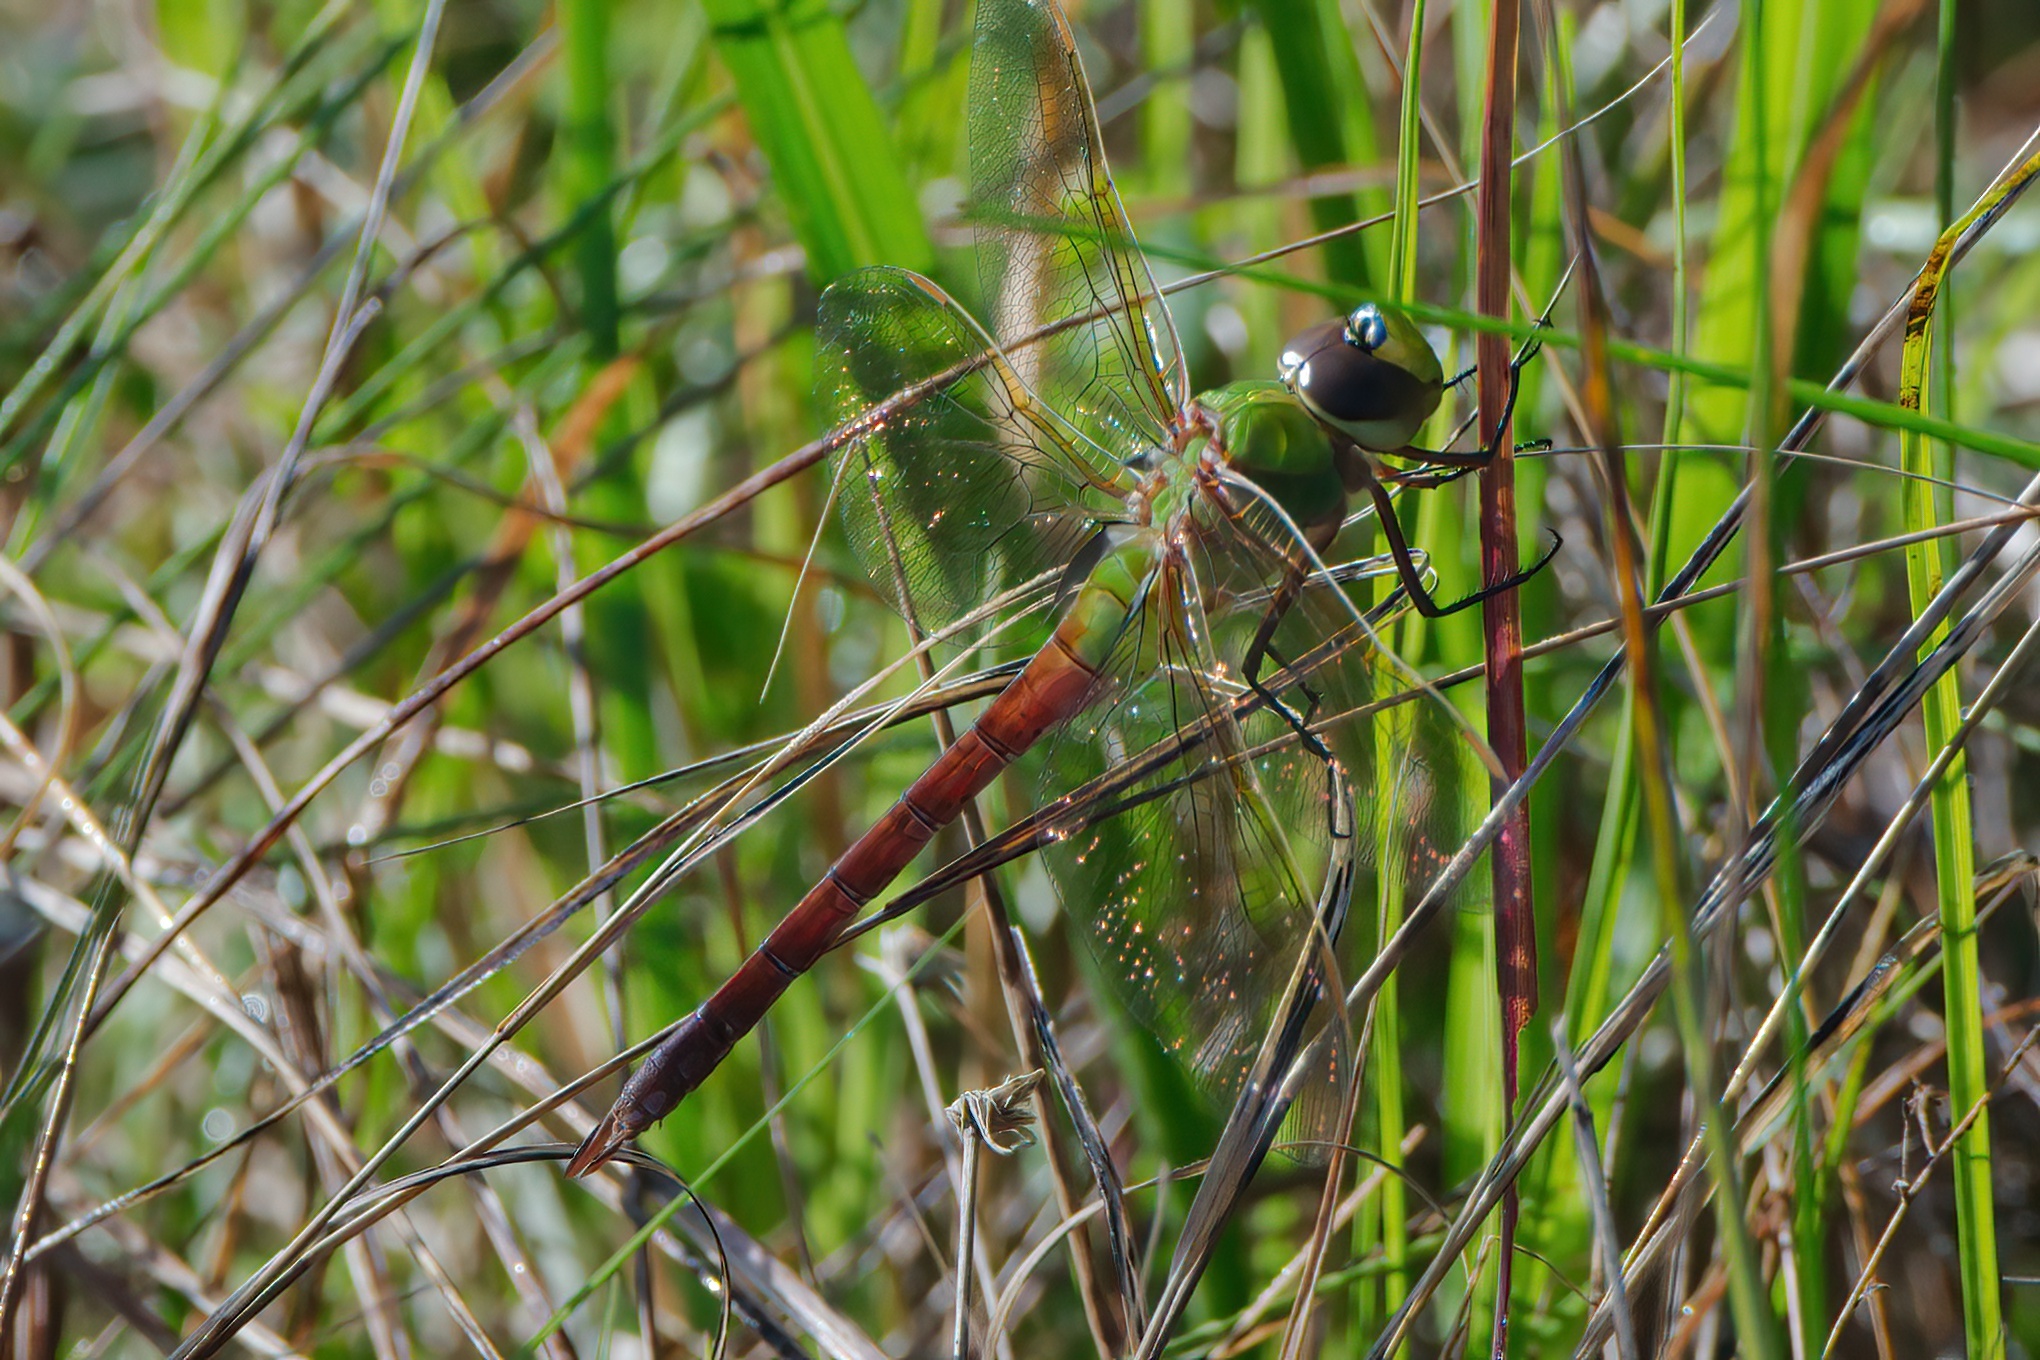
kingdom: Animalia
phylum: Arthropoda
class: Insecta
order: Odonata
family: Aeshnidae
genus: Anax
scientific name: Anax junius
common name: Common green darner
